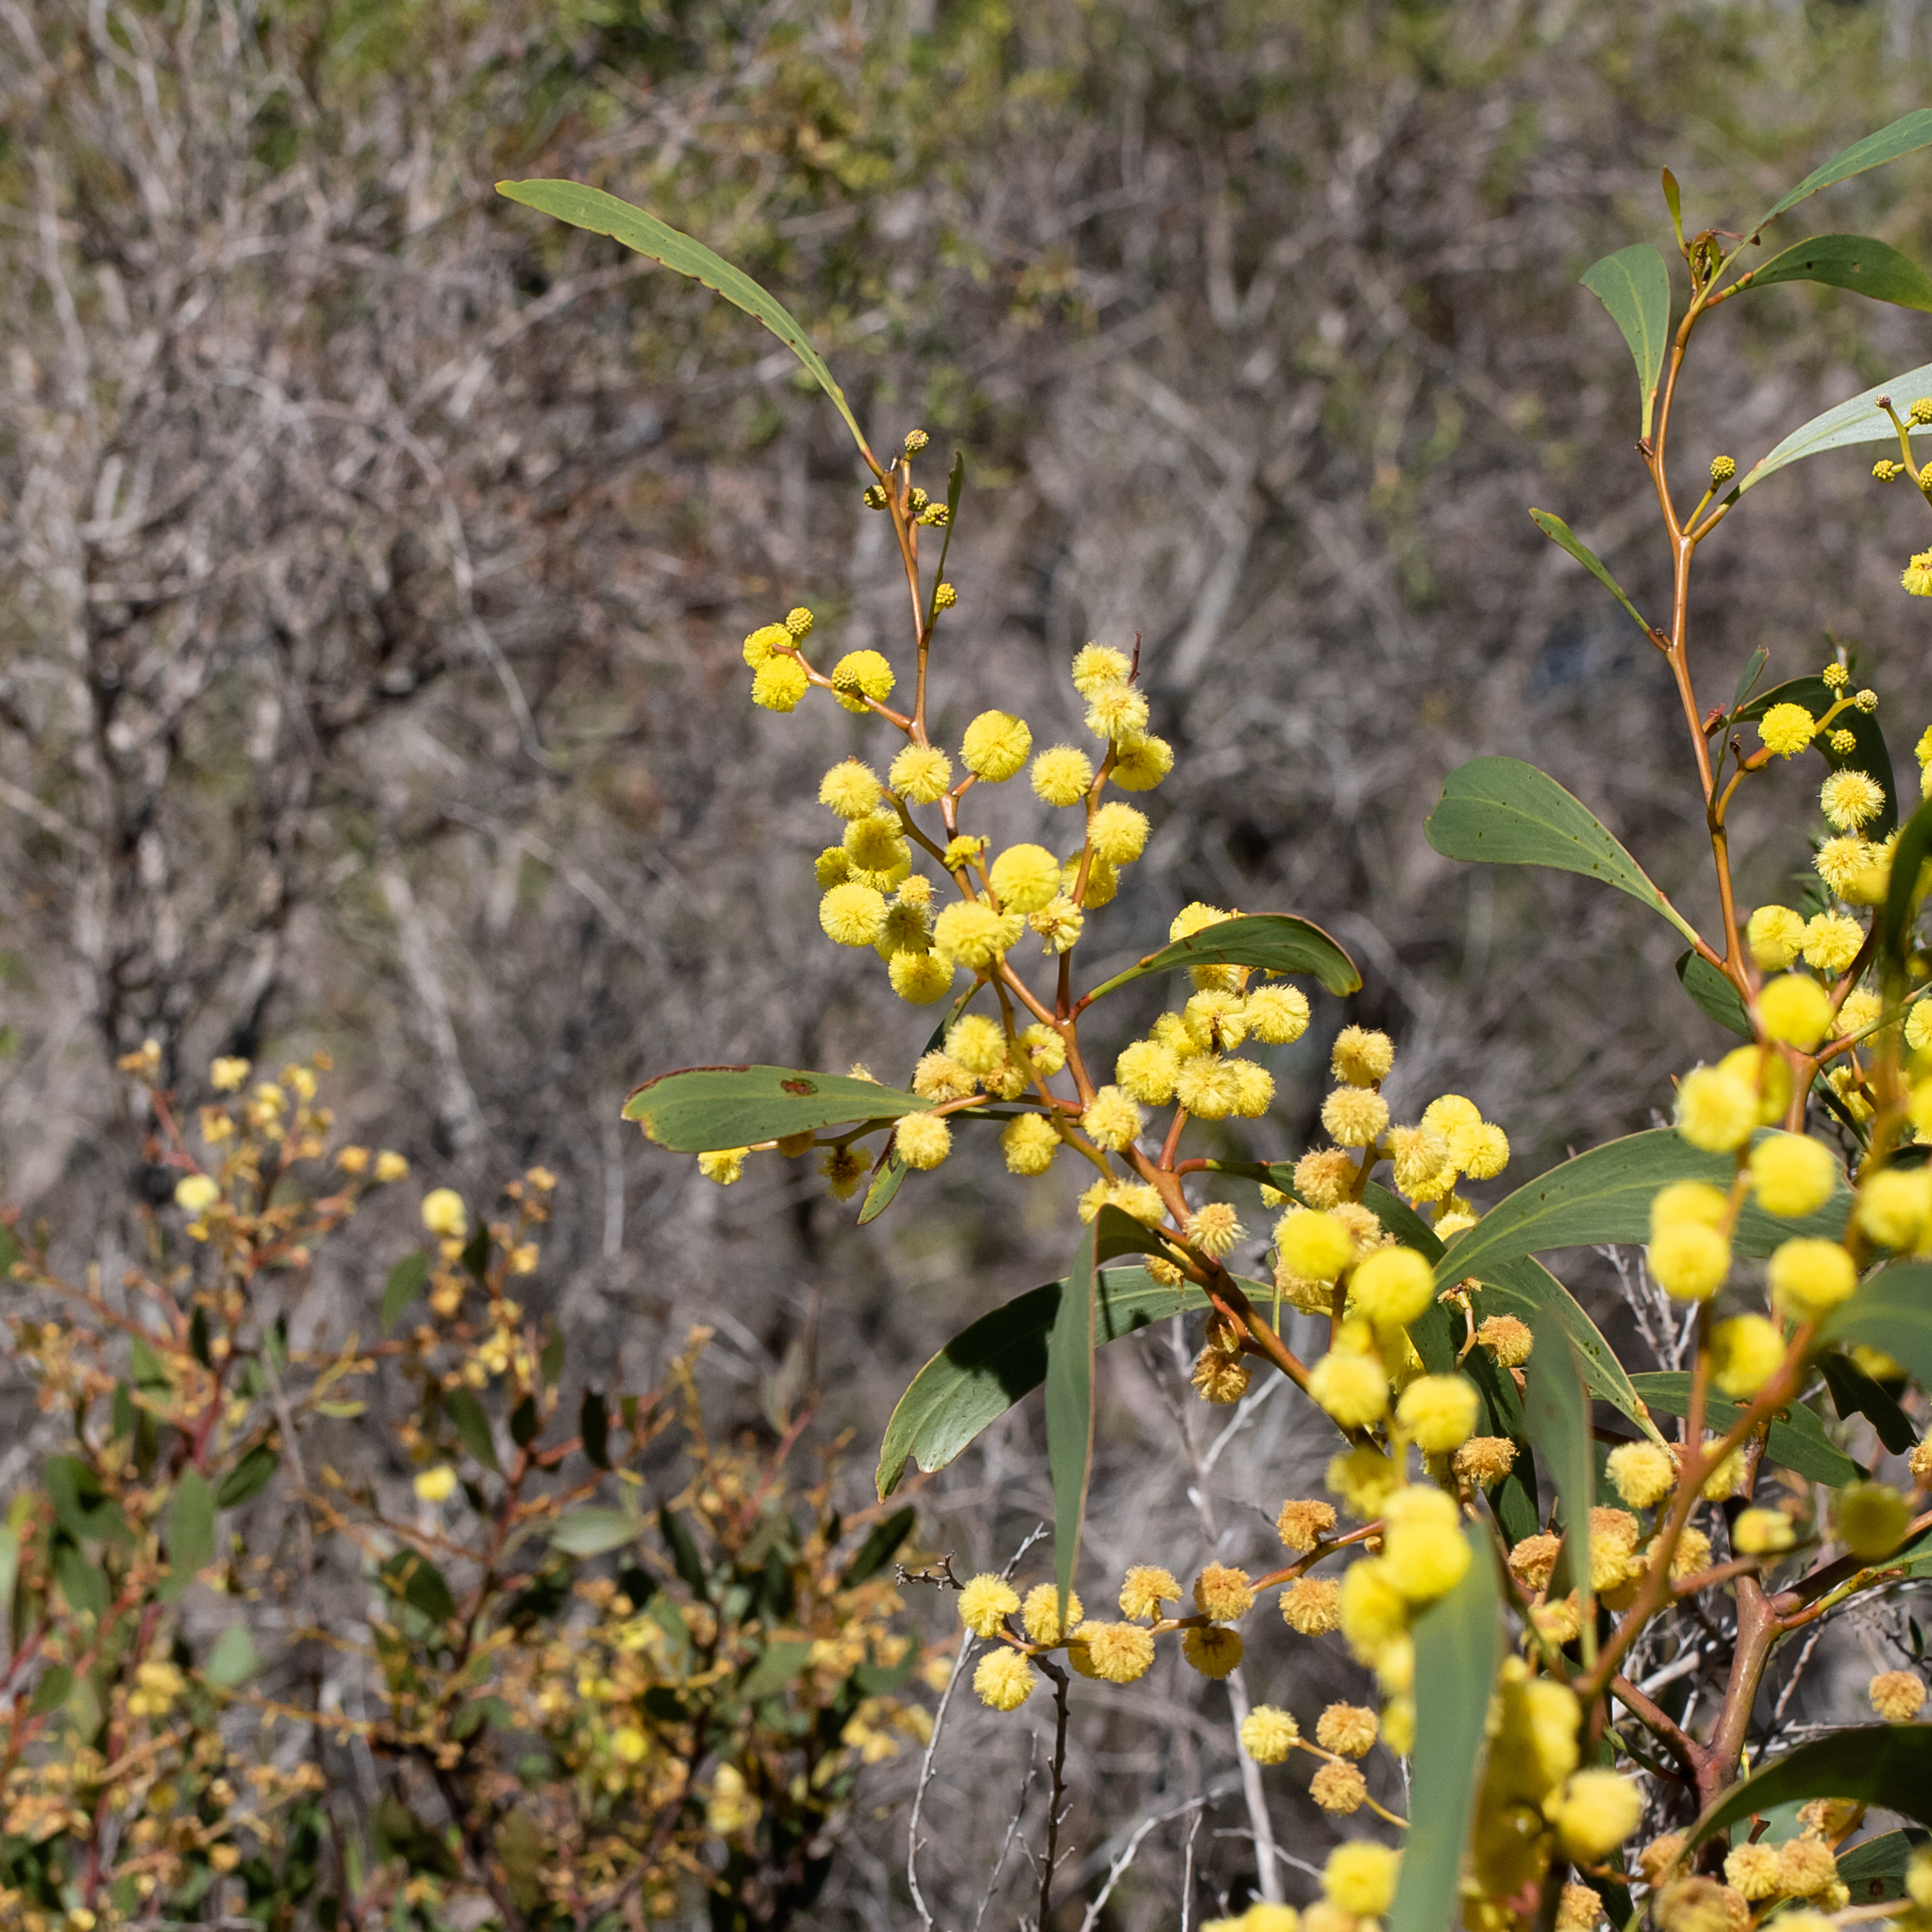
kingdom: Plantae
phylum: Tracheophyta
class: Magnoliopsida
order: Fabales
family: Fabaceae
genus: Acacia
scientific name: Acacia pycnantha
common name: Golden wattle
